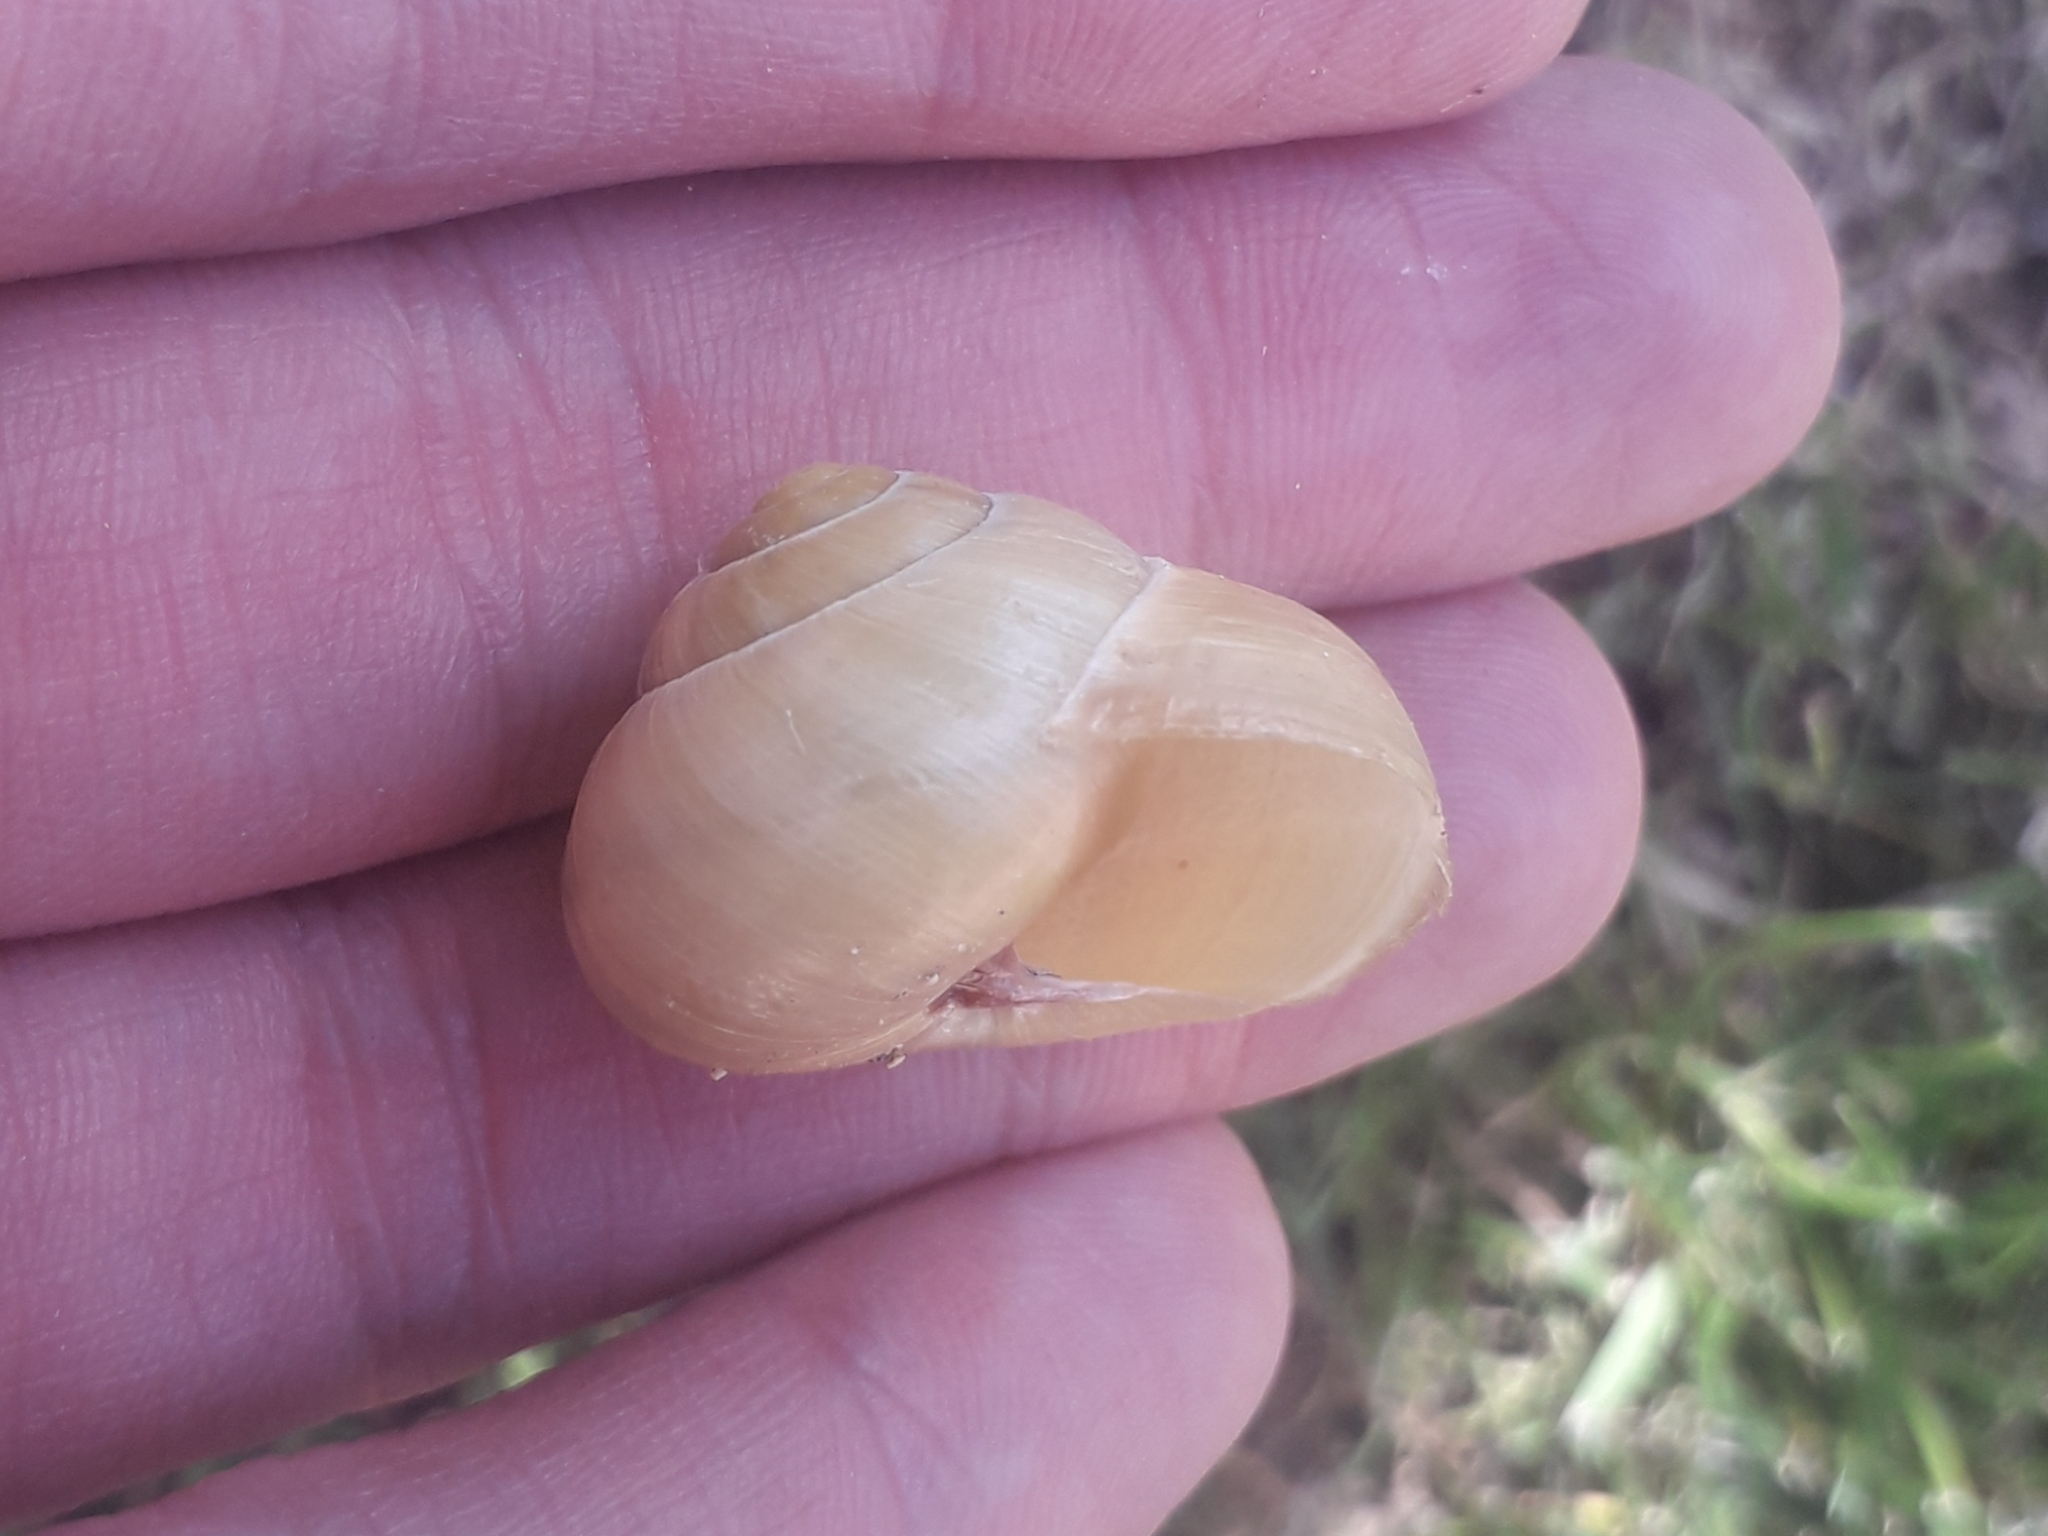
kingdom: Animalia
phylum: Mollusca
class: Gastropoda
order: Stylommatophora
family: Helicidae
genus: Cepaea
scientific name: Cepaea
